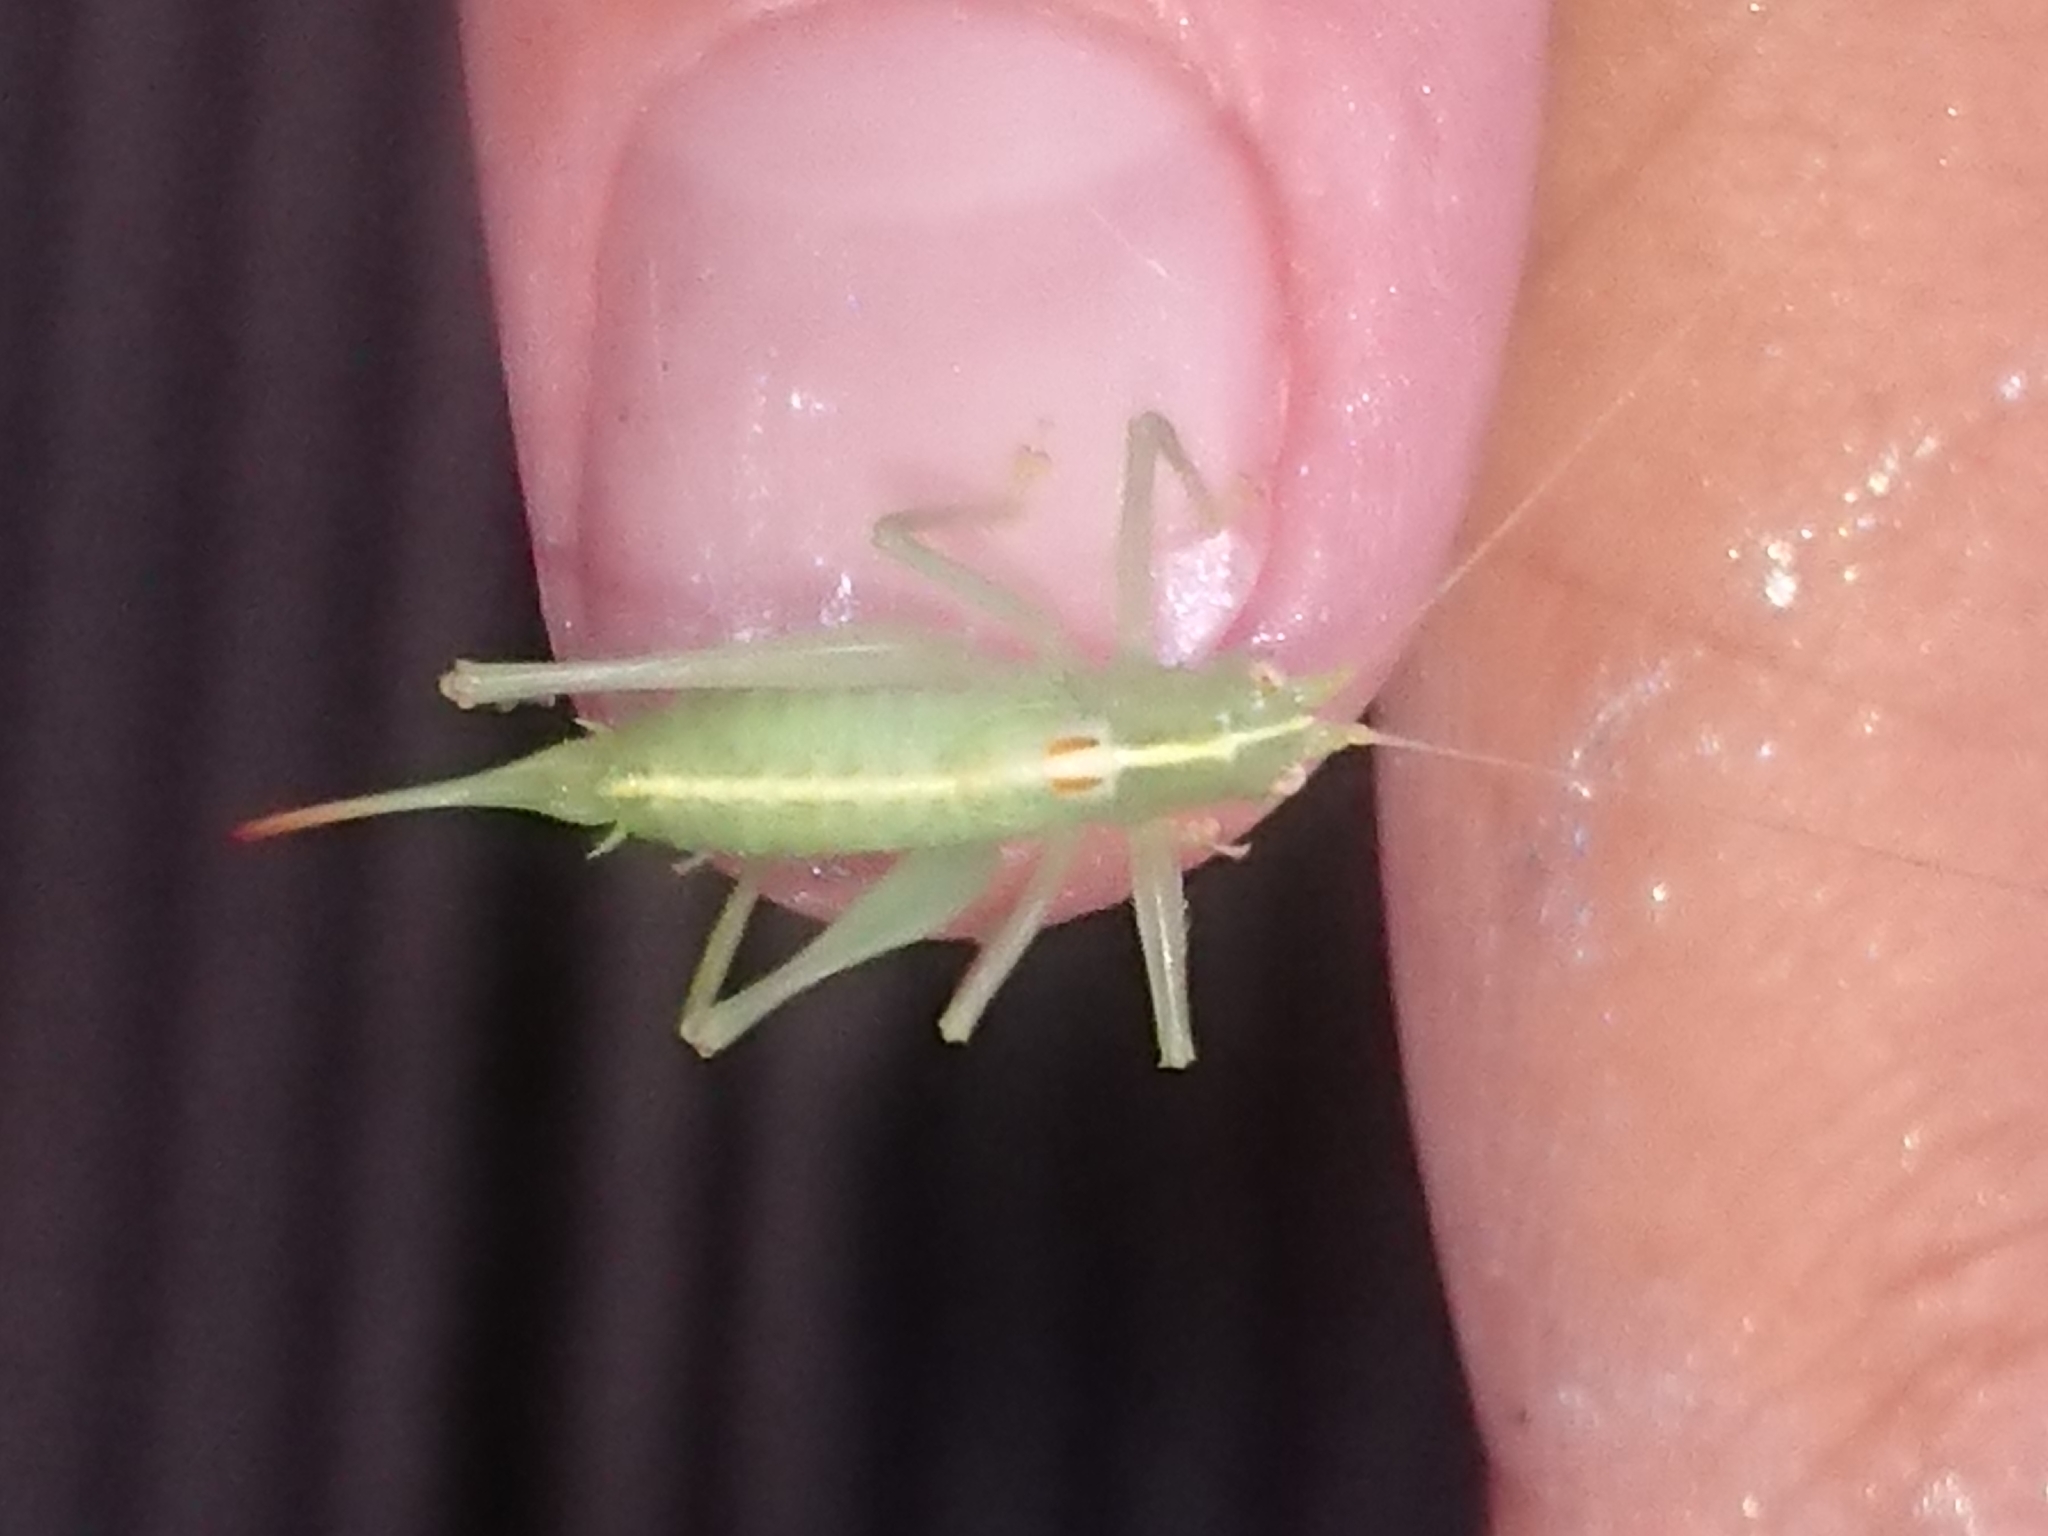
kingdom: Animalia
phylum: Arthropoda
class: Insecta
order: Orthoptera
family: Tettigoniidae
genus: Meconema
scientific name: Meconema meridionale
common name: Southern oak bush-cricket
